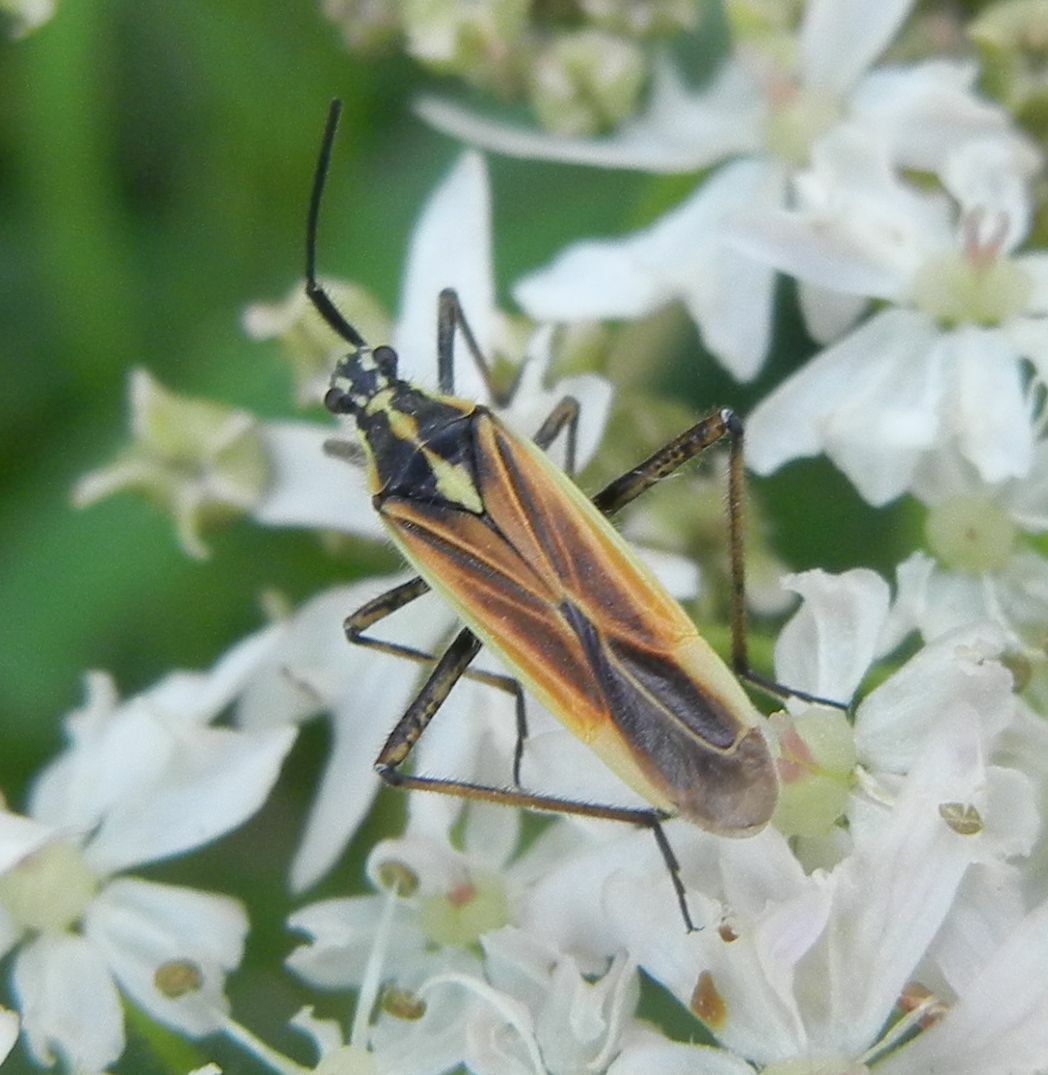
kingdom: Animalia
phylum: Arthropoda
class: Insecta
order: Hemiptera
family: Miridae
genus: Leptopterna
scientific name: Leptopterna dolabrata
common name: Meadow plant bug
